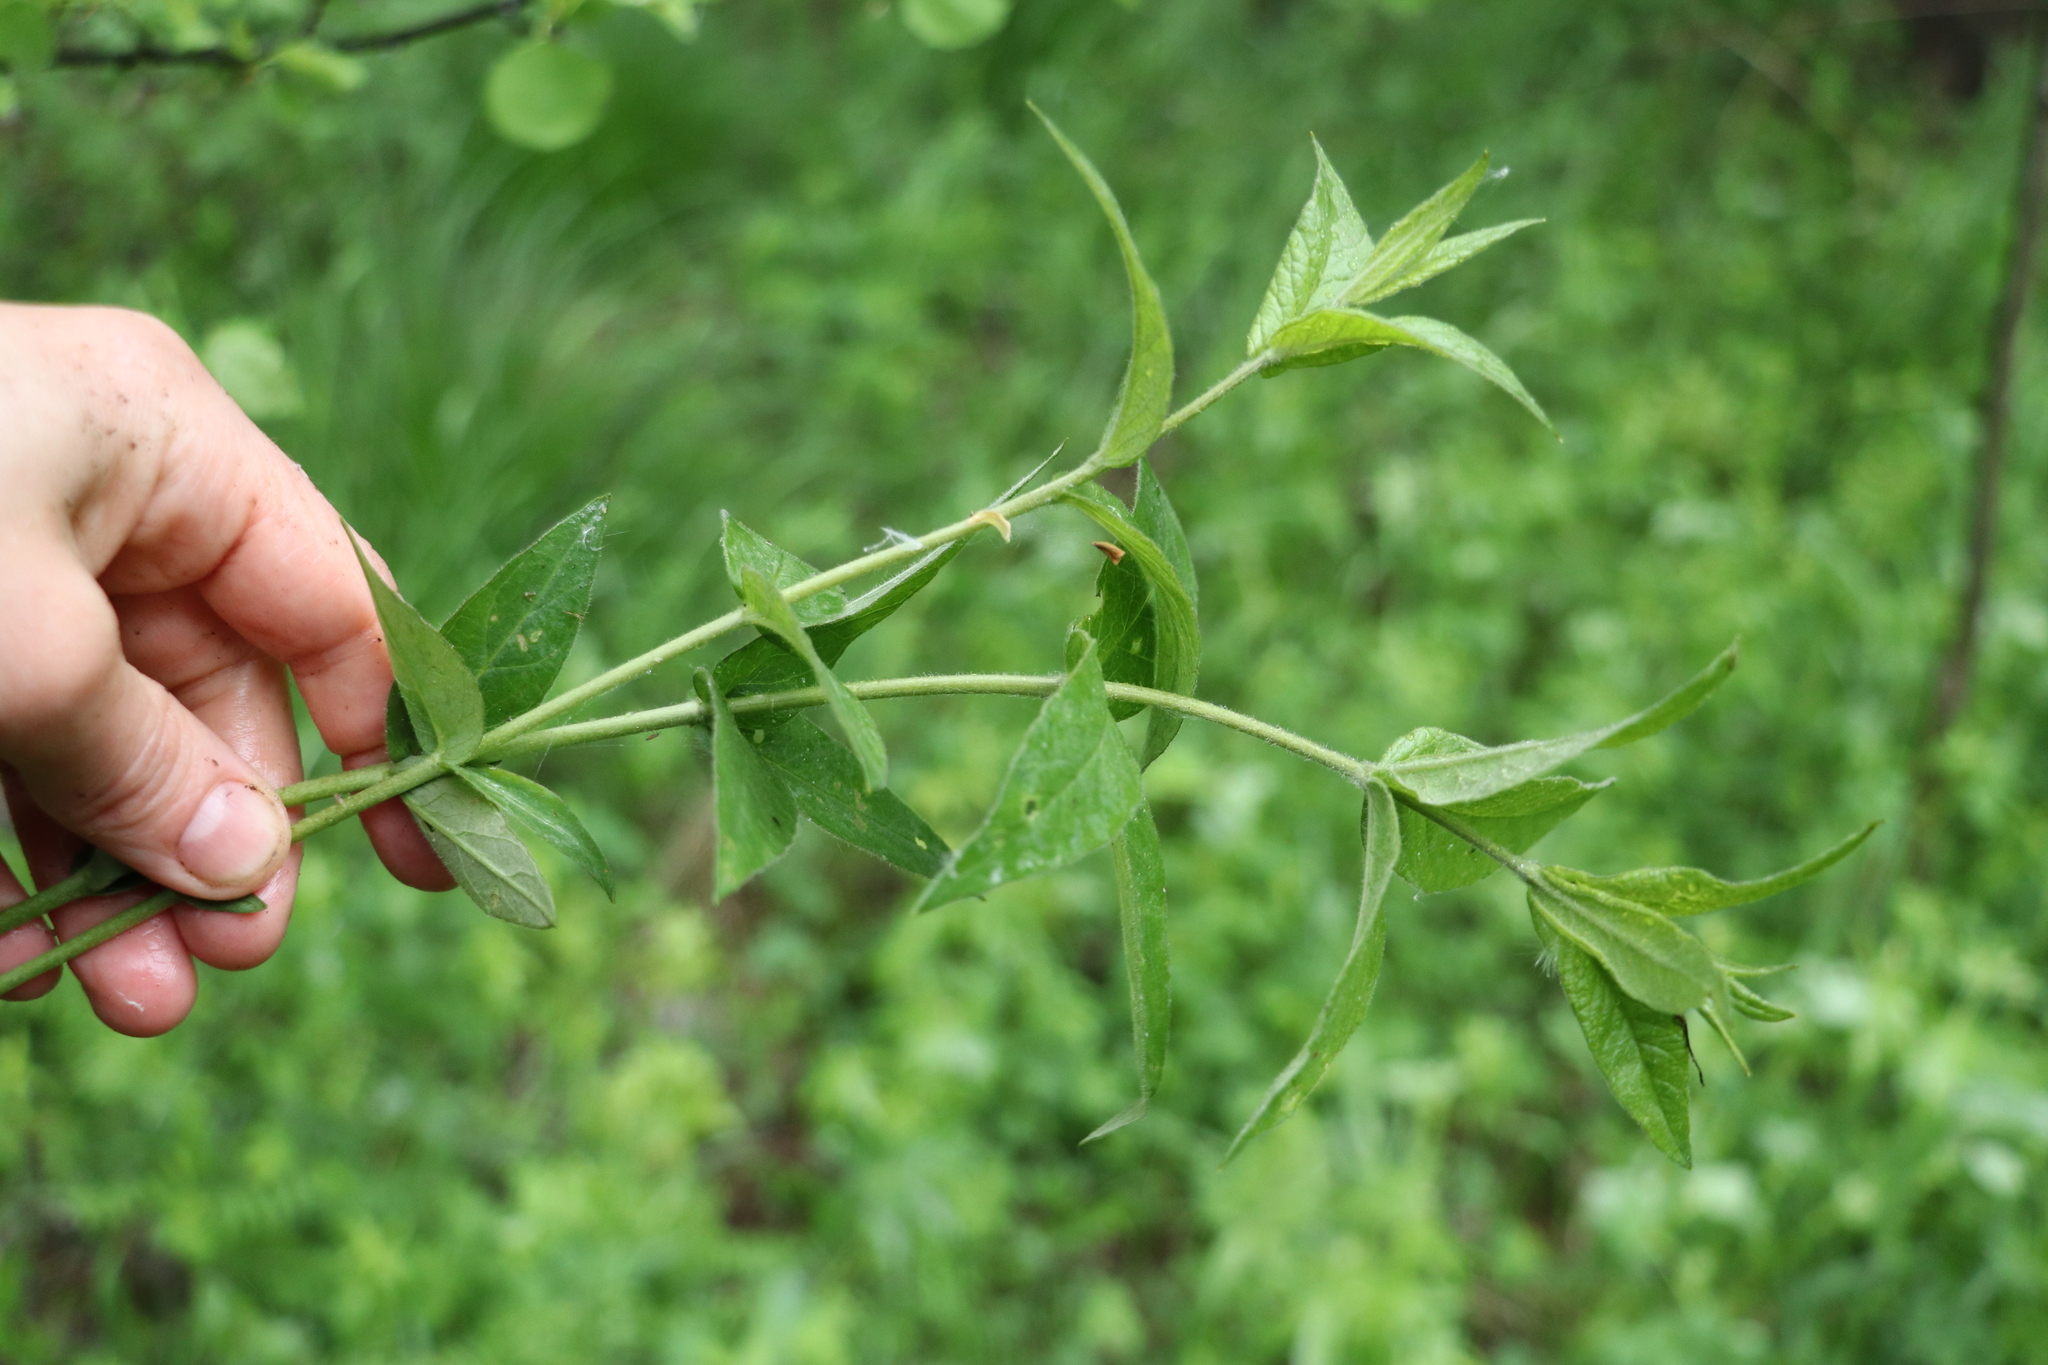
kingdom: Plantae
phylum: Tracheophyta
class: Magnoliopsida
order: Ericales
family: Primulaceae
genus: Lysimachia
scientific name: Lysimachia vulgaris
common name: Yellow loosestrife
